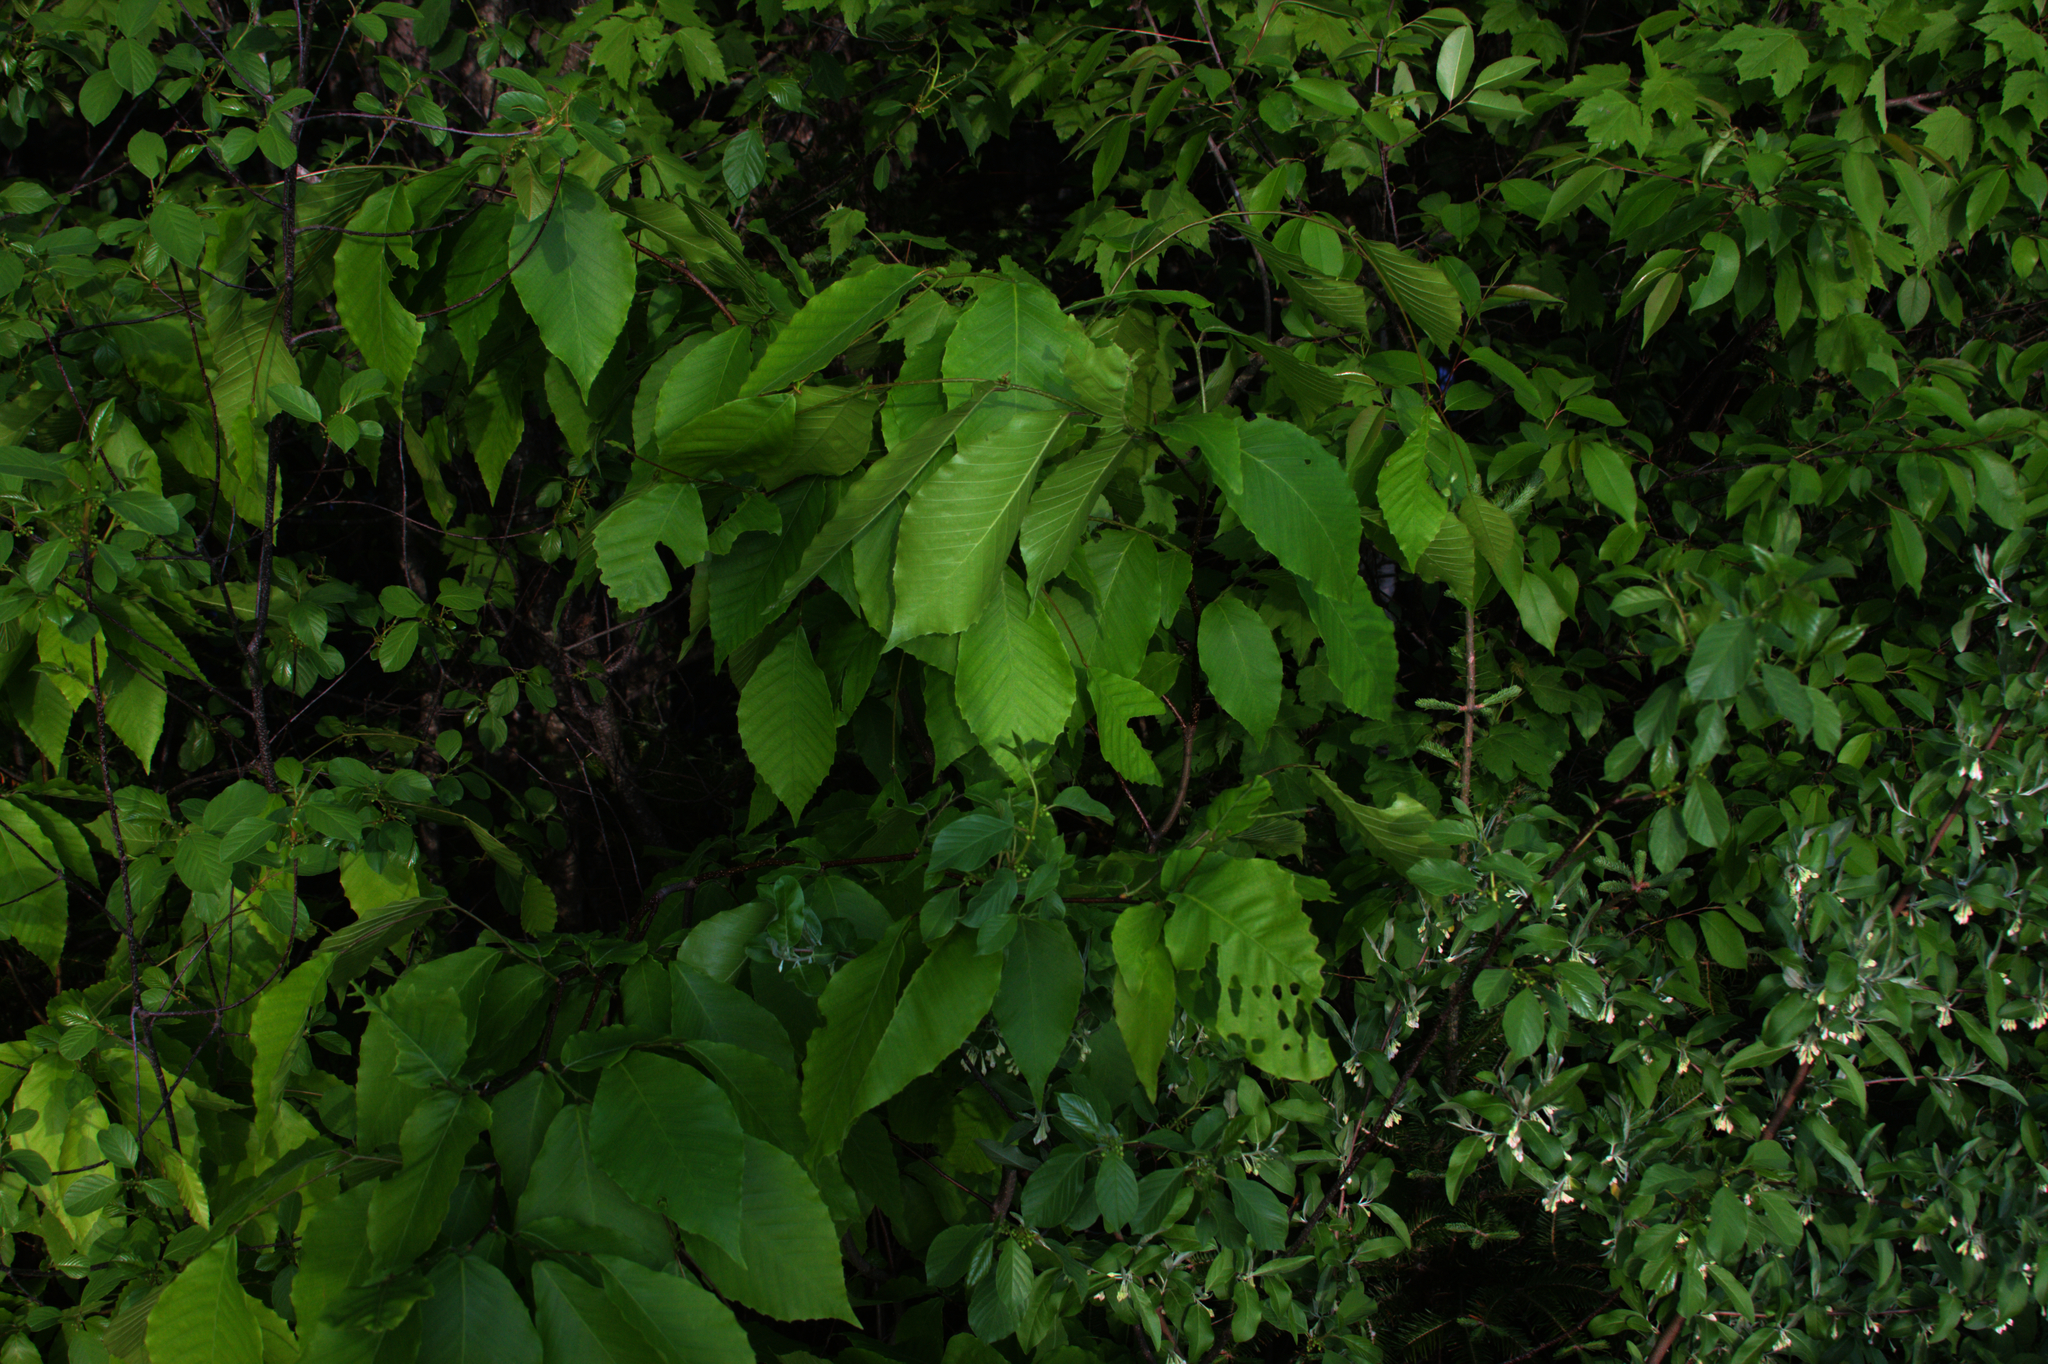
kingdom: Plantae
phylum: Tracheophyta
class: Magnoliopsida
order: Fagales
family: Fagaceae
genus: Fagus
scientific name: Fagus grandifolia
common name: American beech
